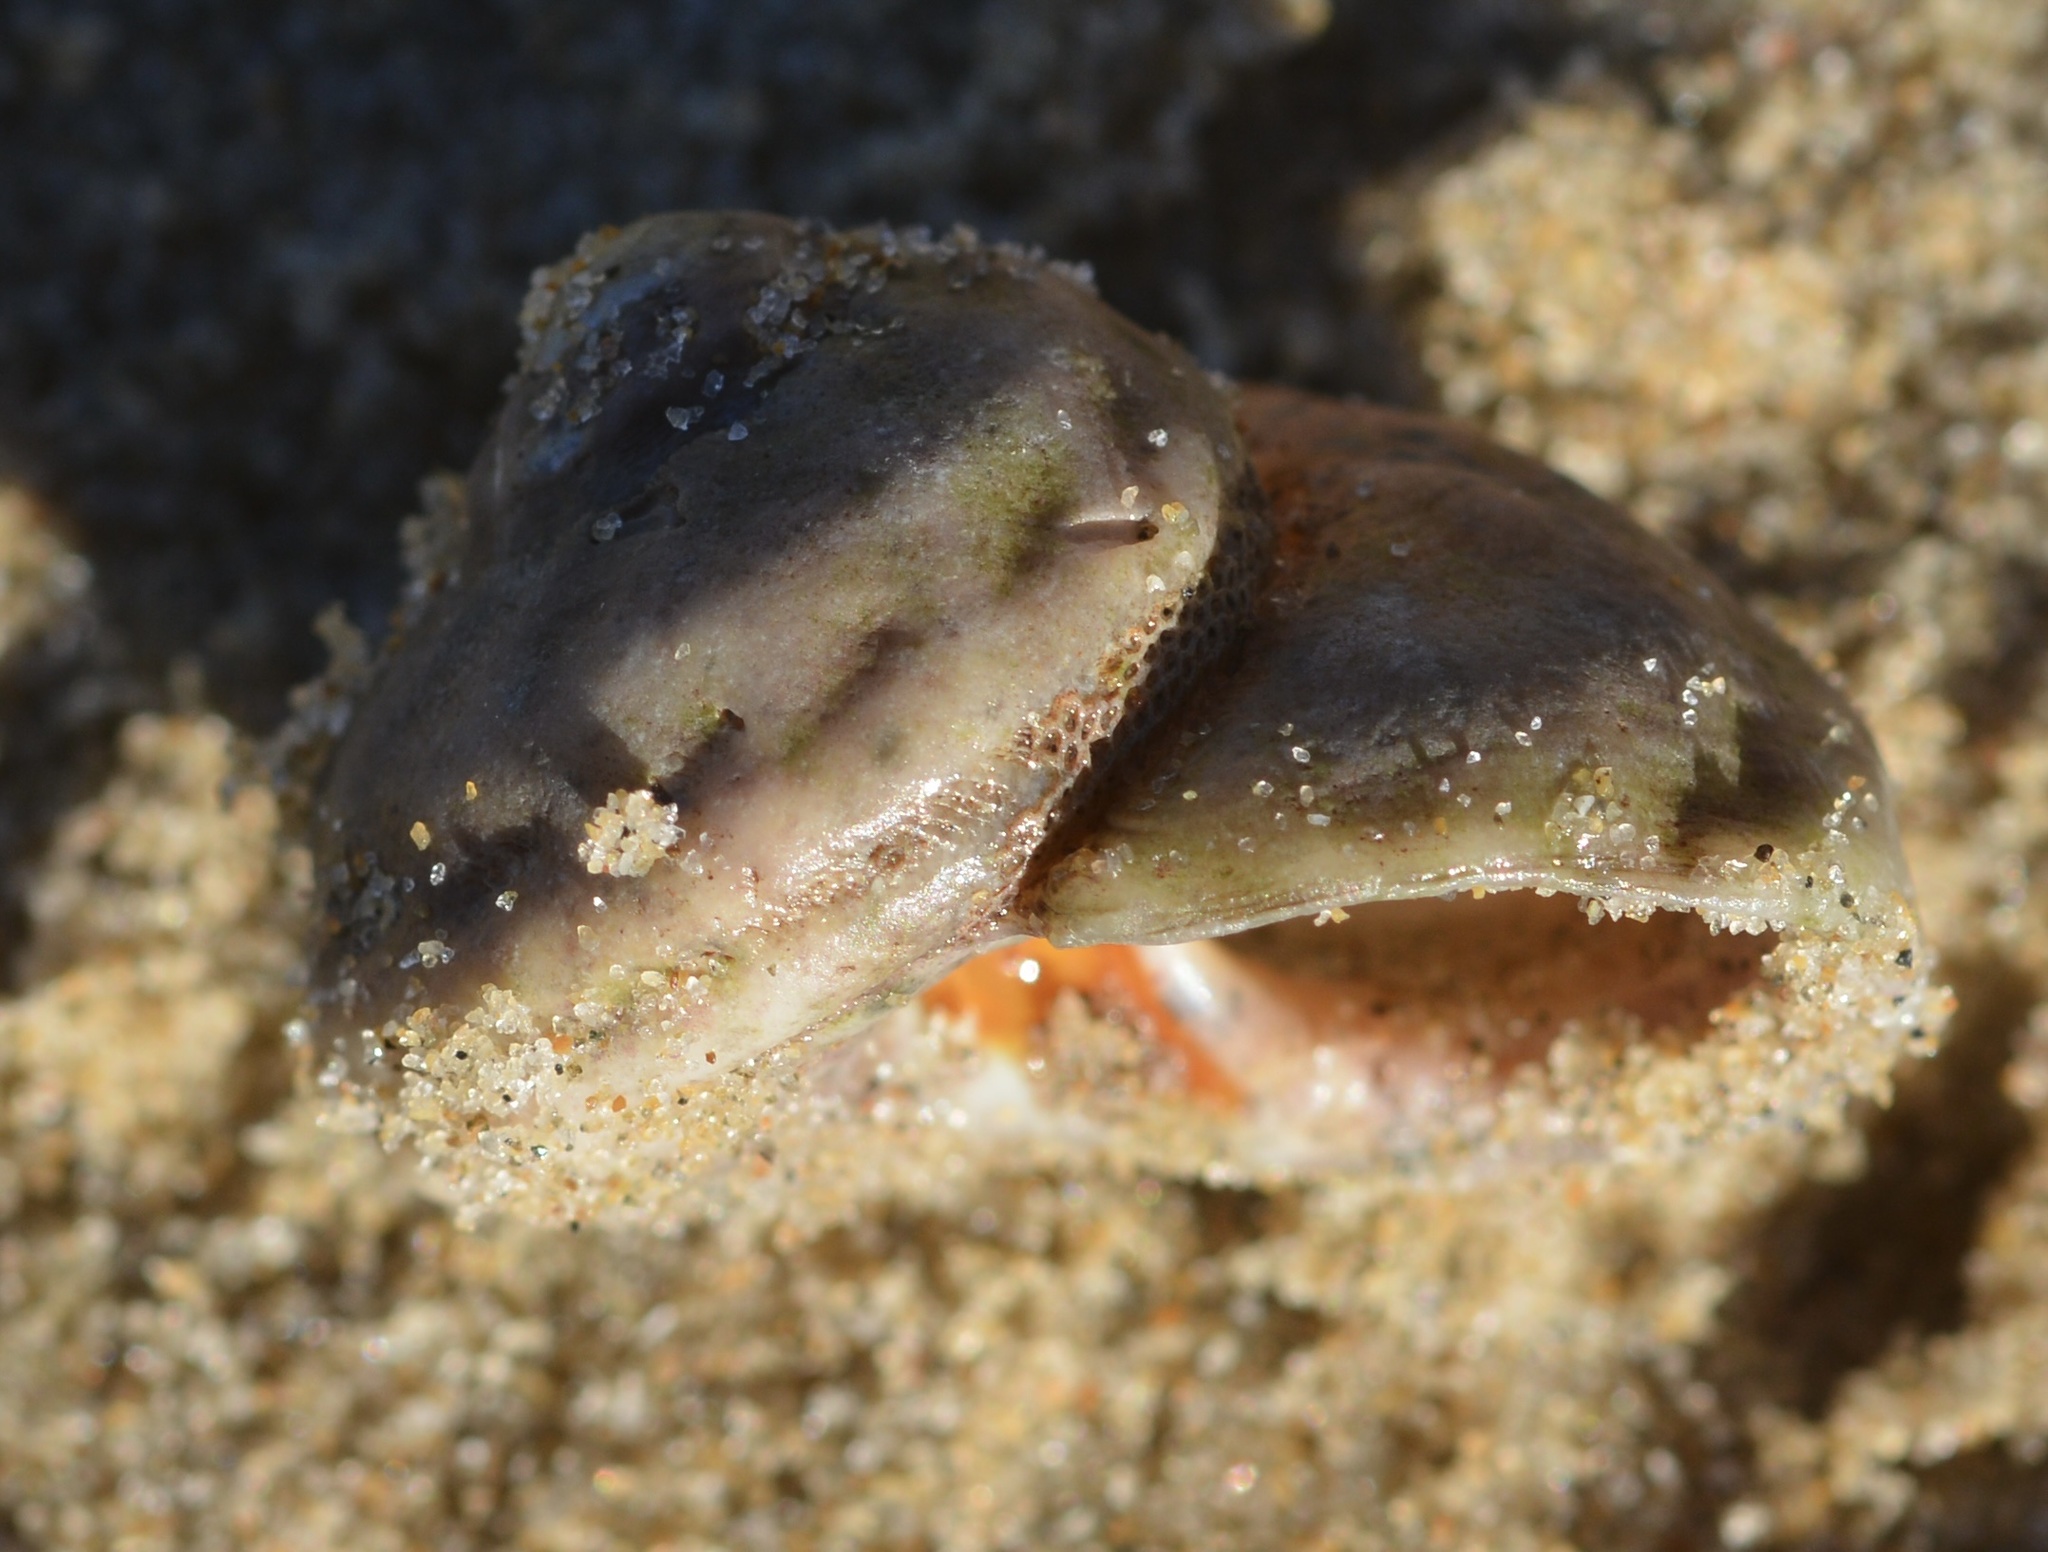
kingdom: Animalia
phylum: Mollusca
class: Gastropoda
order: Trochida
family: Tegulidae
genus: Tegula
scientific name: Tegula aureotincta
